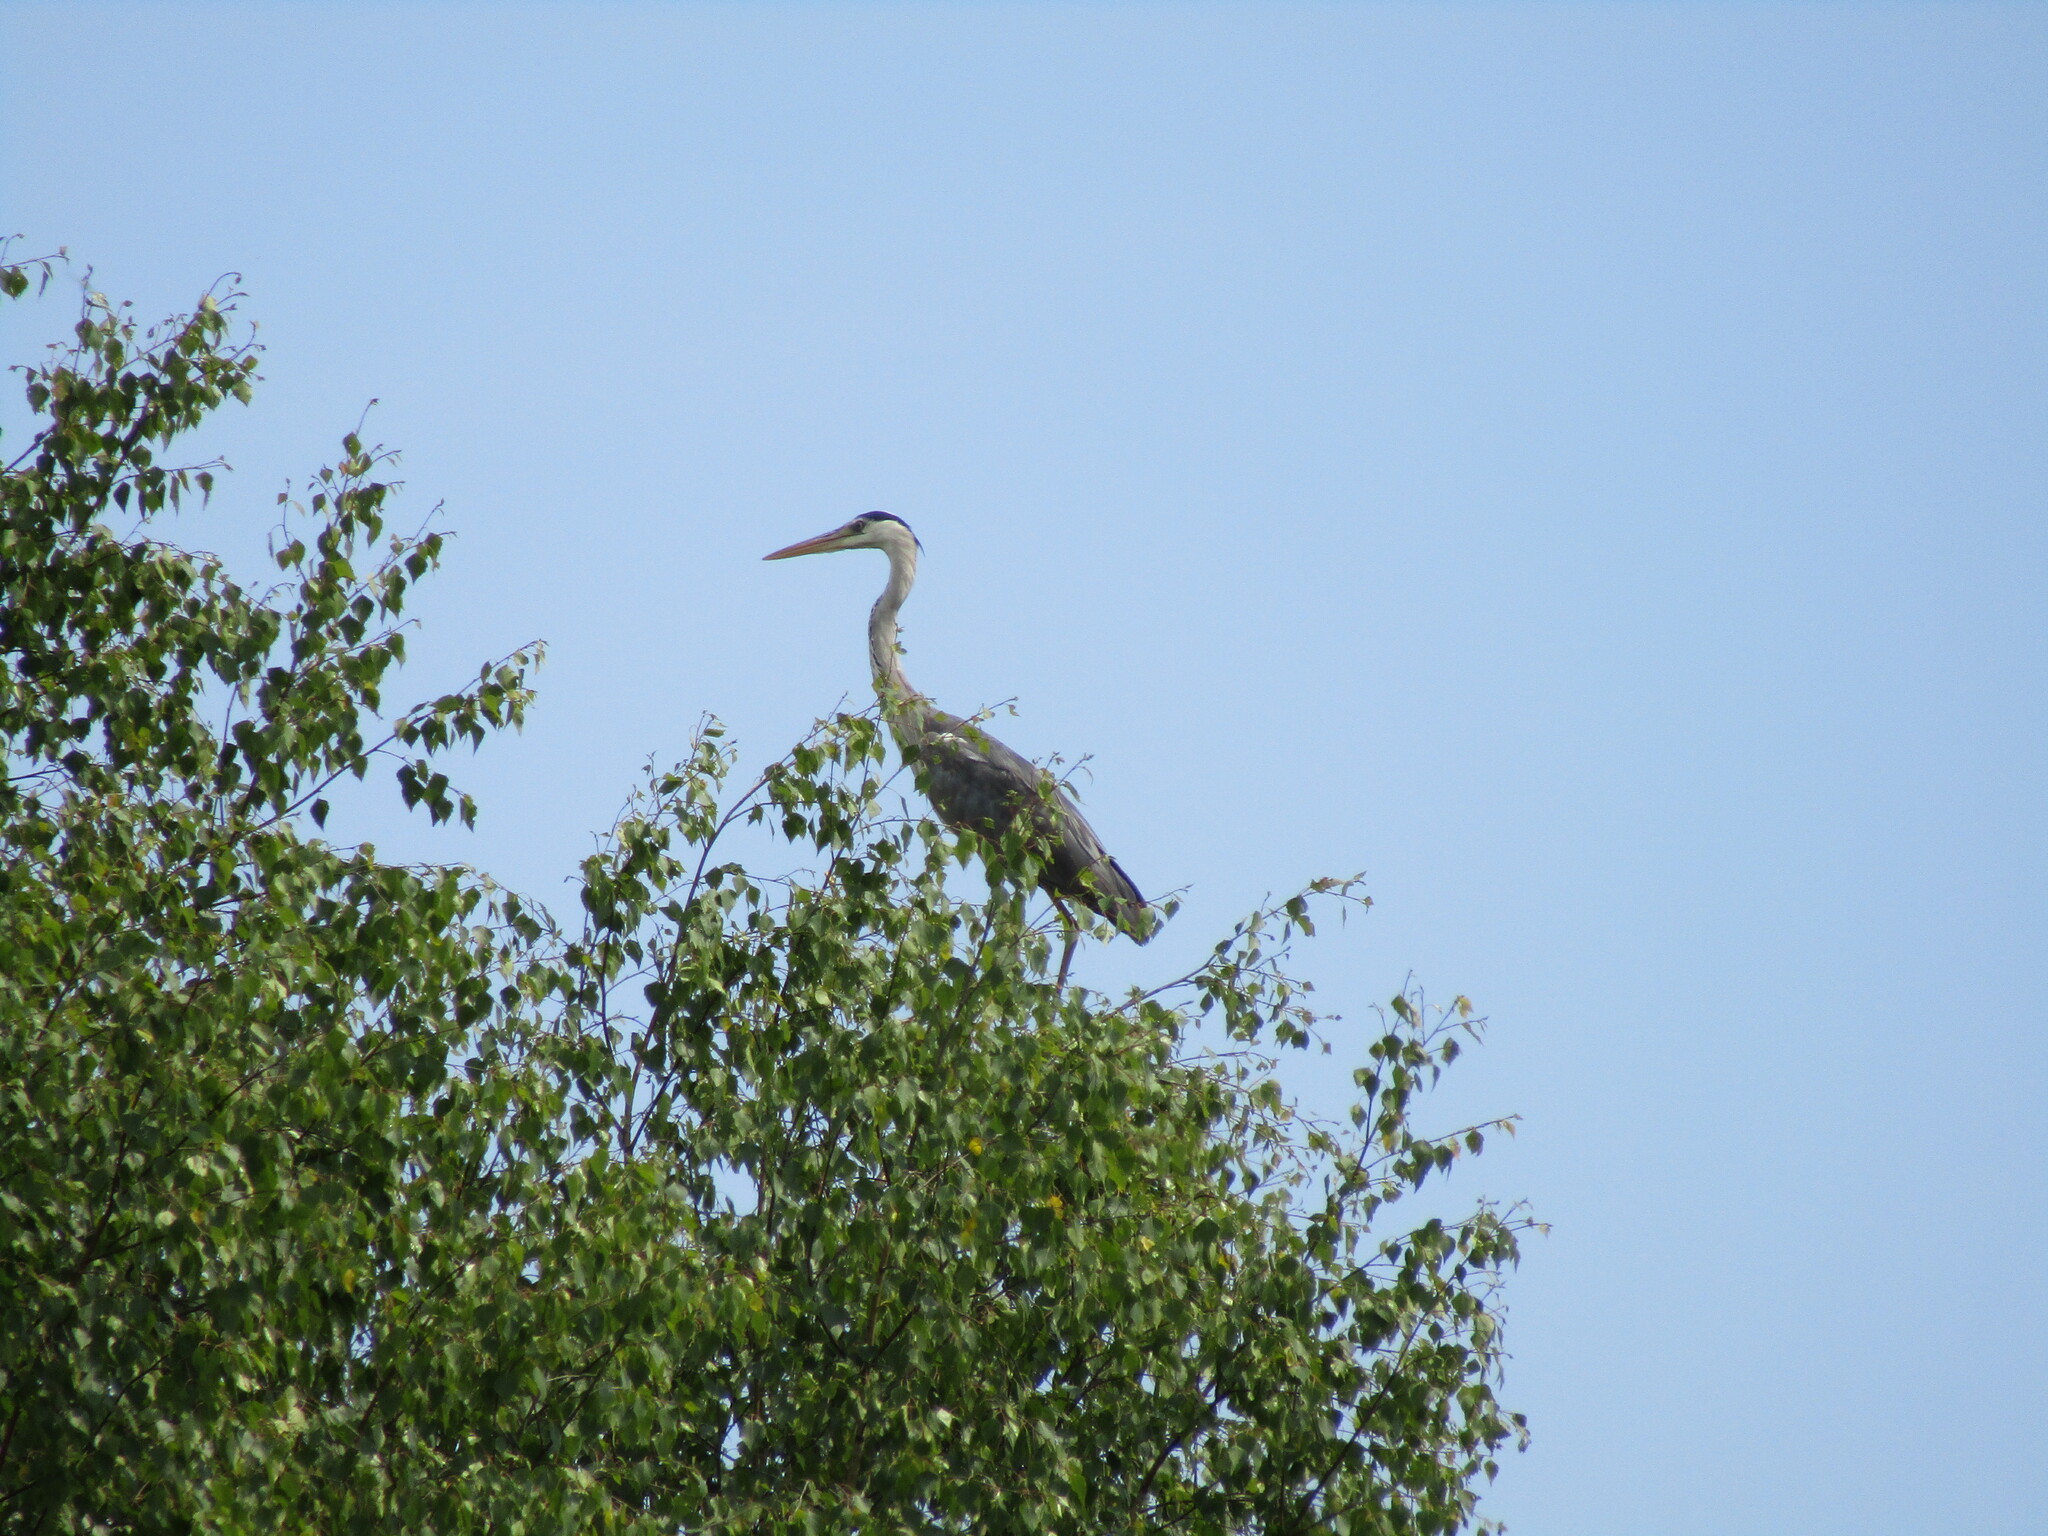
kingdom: Animalia
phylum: Chordata
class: Aves
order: Pelecaniformes
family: Ardeidae
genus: Ardea
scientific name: Ardea cinerea
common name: Grey heron
